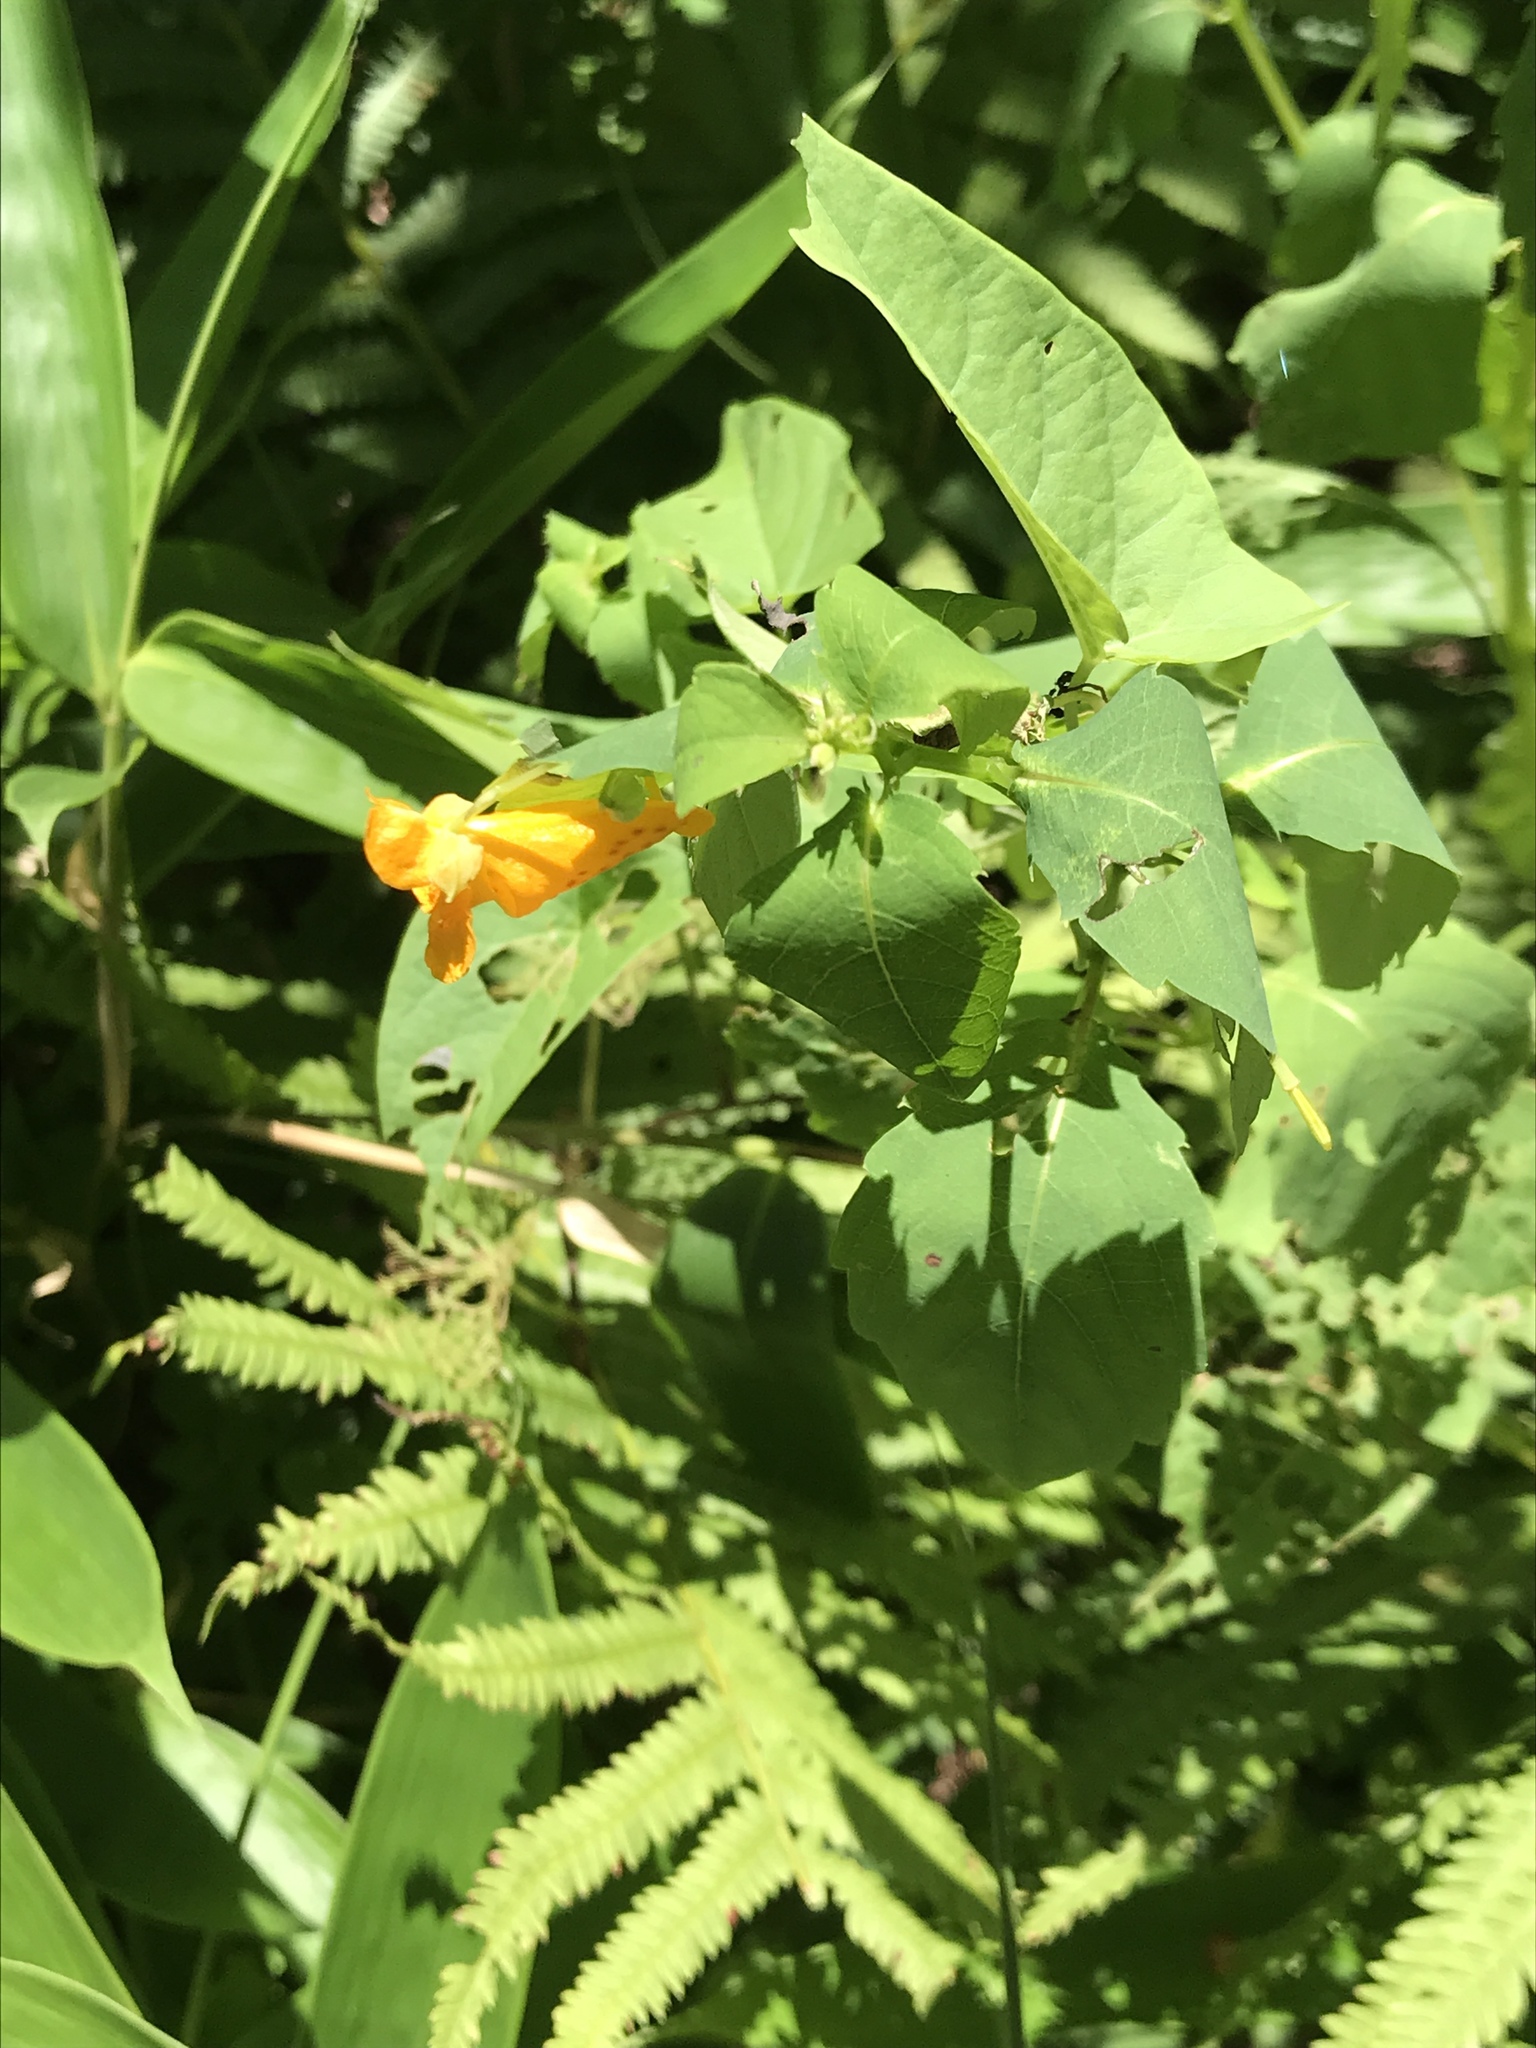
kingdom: Plantae
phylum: Tracheophyta
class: Magnoliopsida
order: Ericales
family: Balsaminaceae
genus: Impatiens
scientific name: Impatiens capensis
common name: Orange balsam
